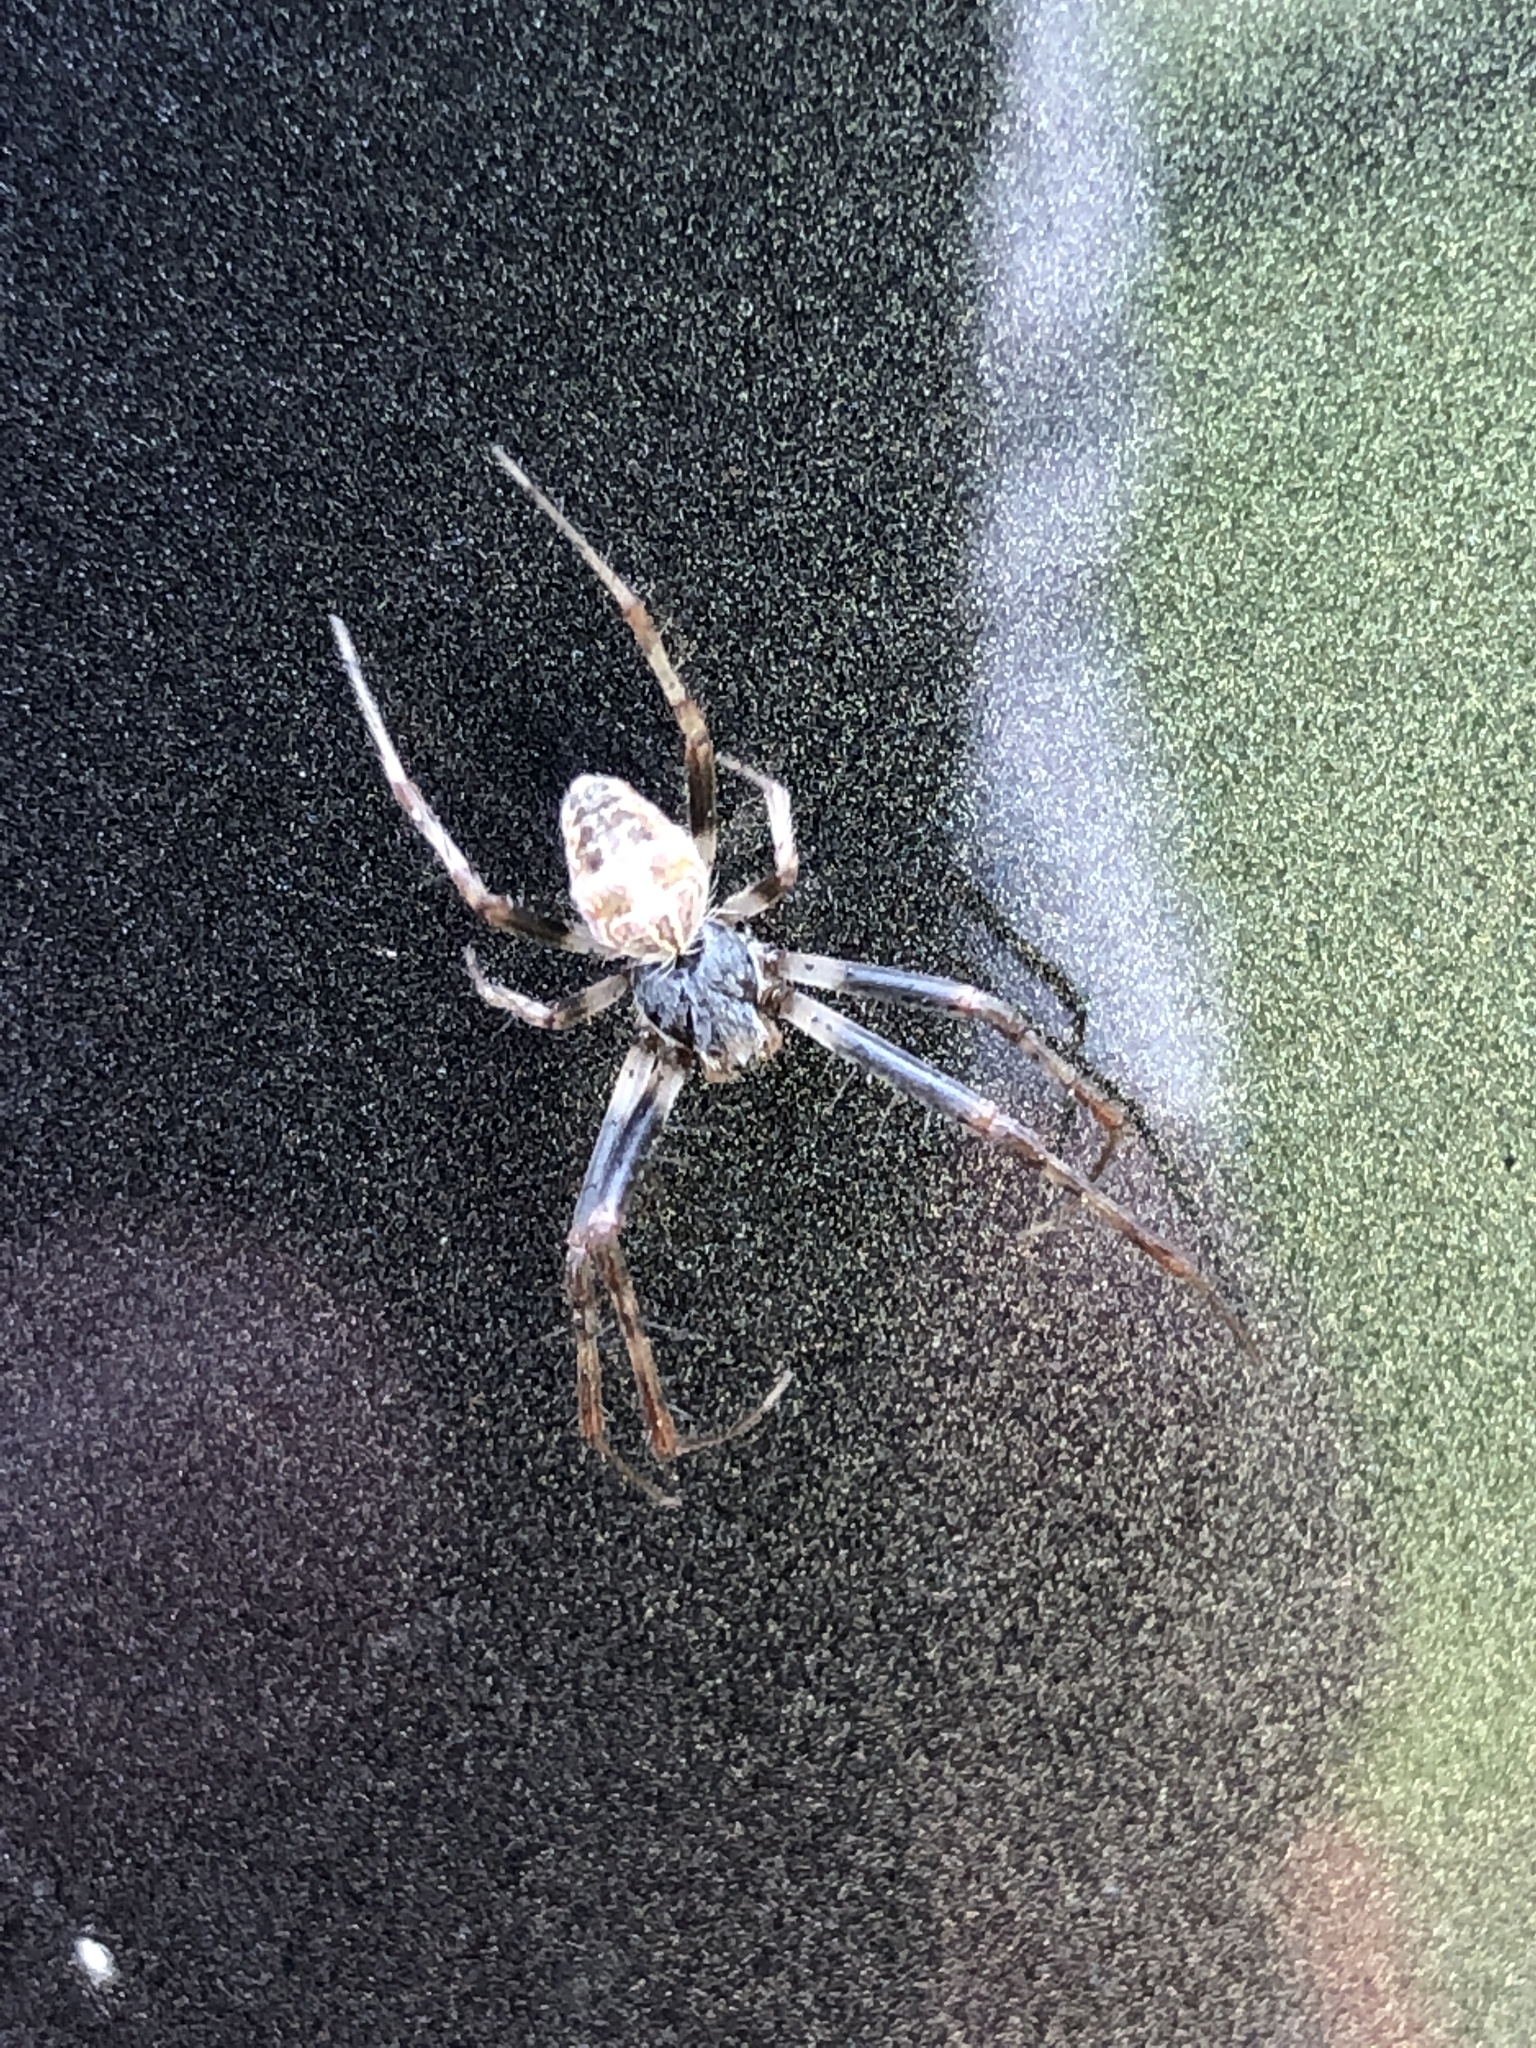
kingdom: Animalia
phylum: Arthropoda
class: Arachnida
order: Araneae
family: Araneidae
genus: Metepeira
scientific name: Metepeira labyrinthea
